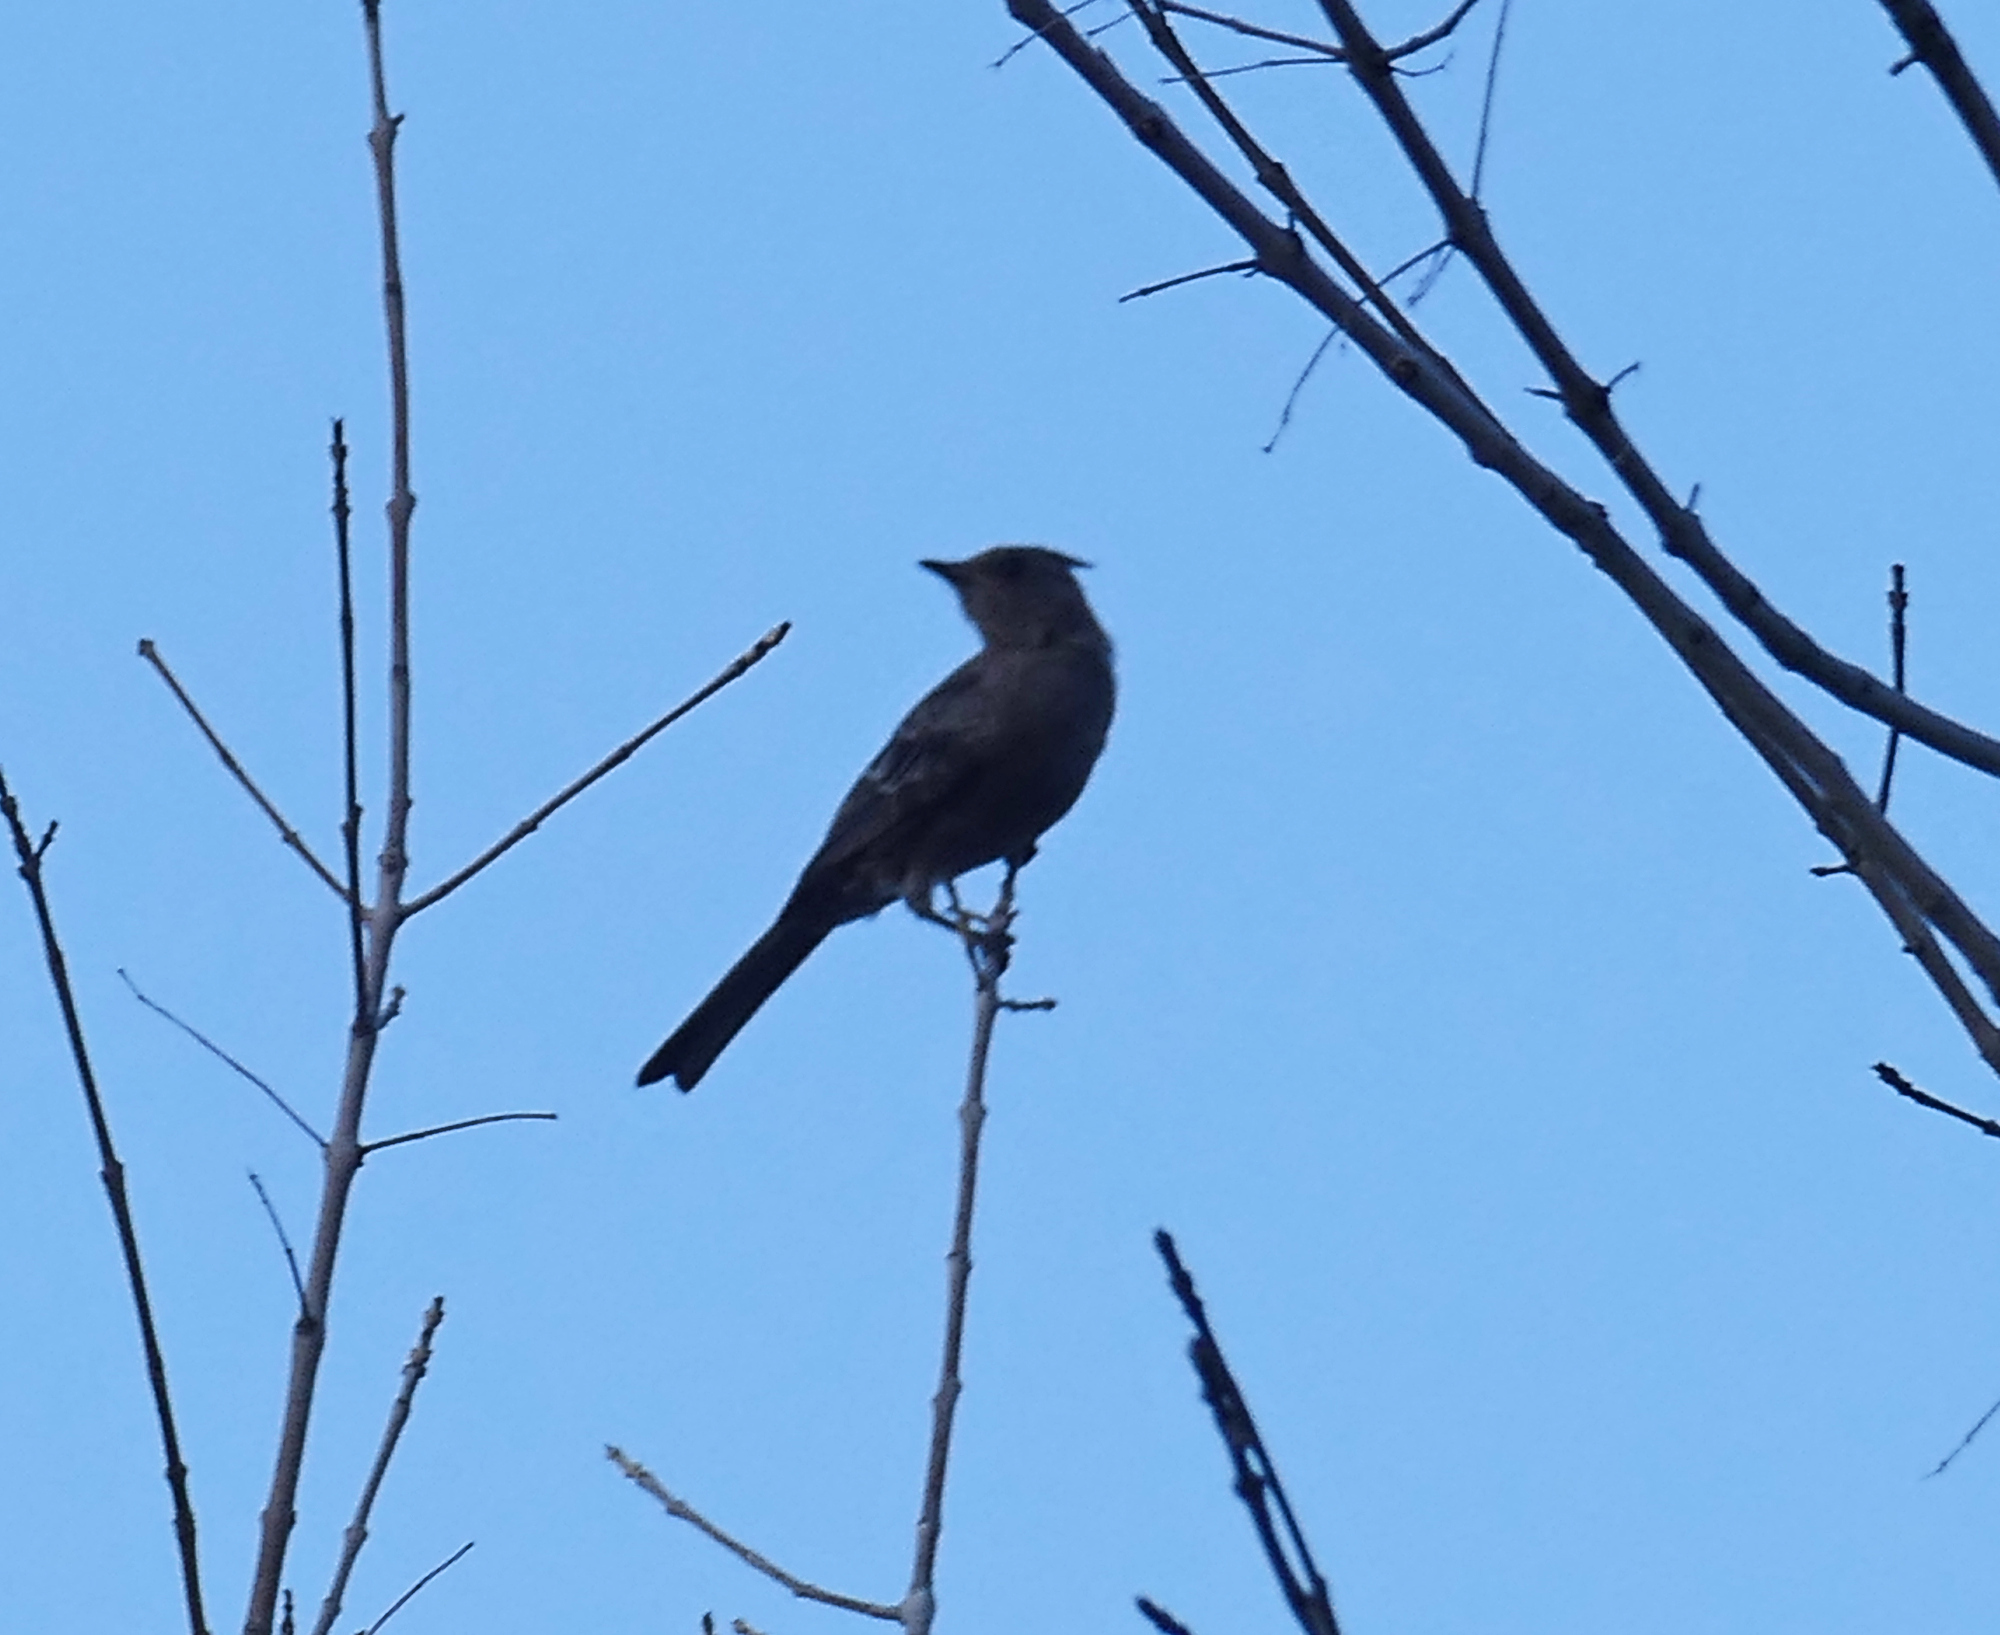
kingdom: Animalia
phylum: Chordata
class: Aves
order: Passeriformes
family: Ptilogonatidae
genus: Phainopepla
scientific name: Phainopepla nitens
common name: Phainopepla
